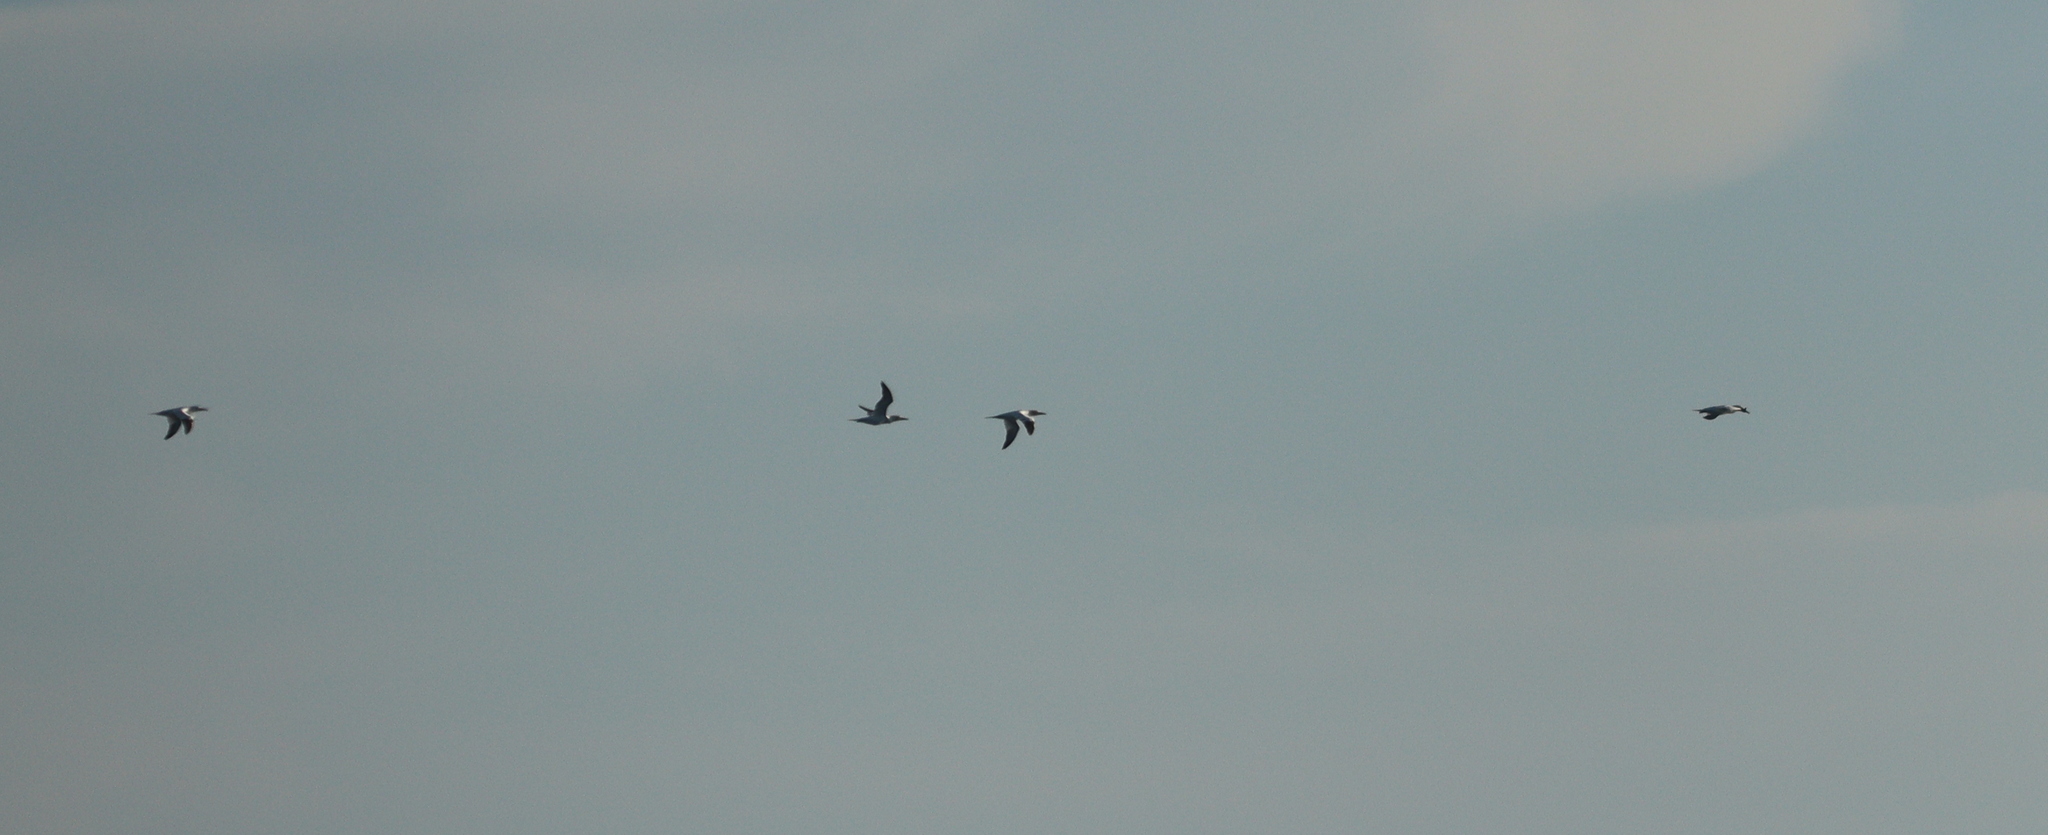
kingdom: Animalia
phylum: Chordata
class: Aves
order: Suliformes
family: Sulidae
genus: Morus
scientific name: Morus bassanus
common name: Northern gannet
